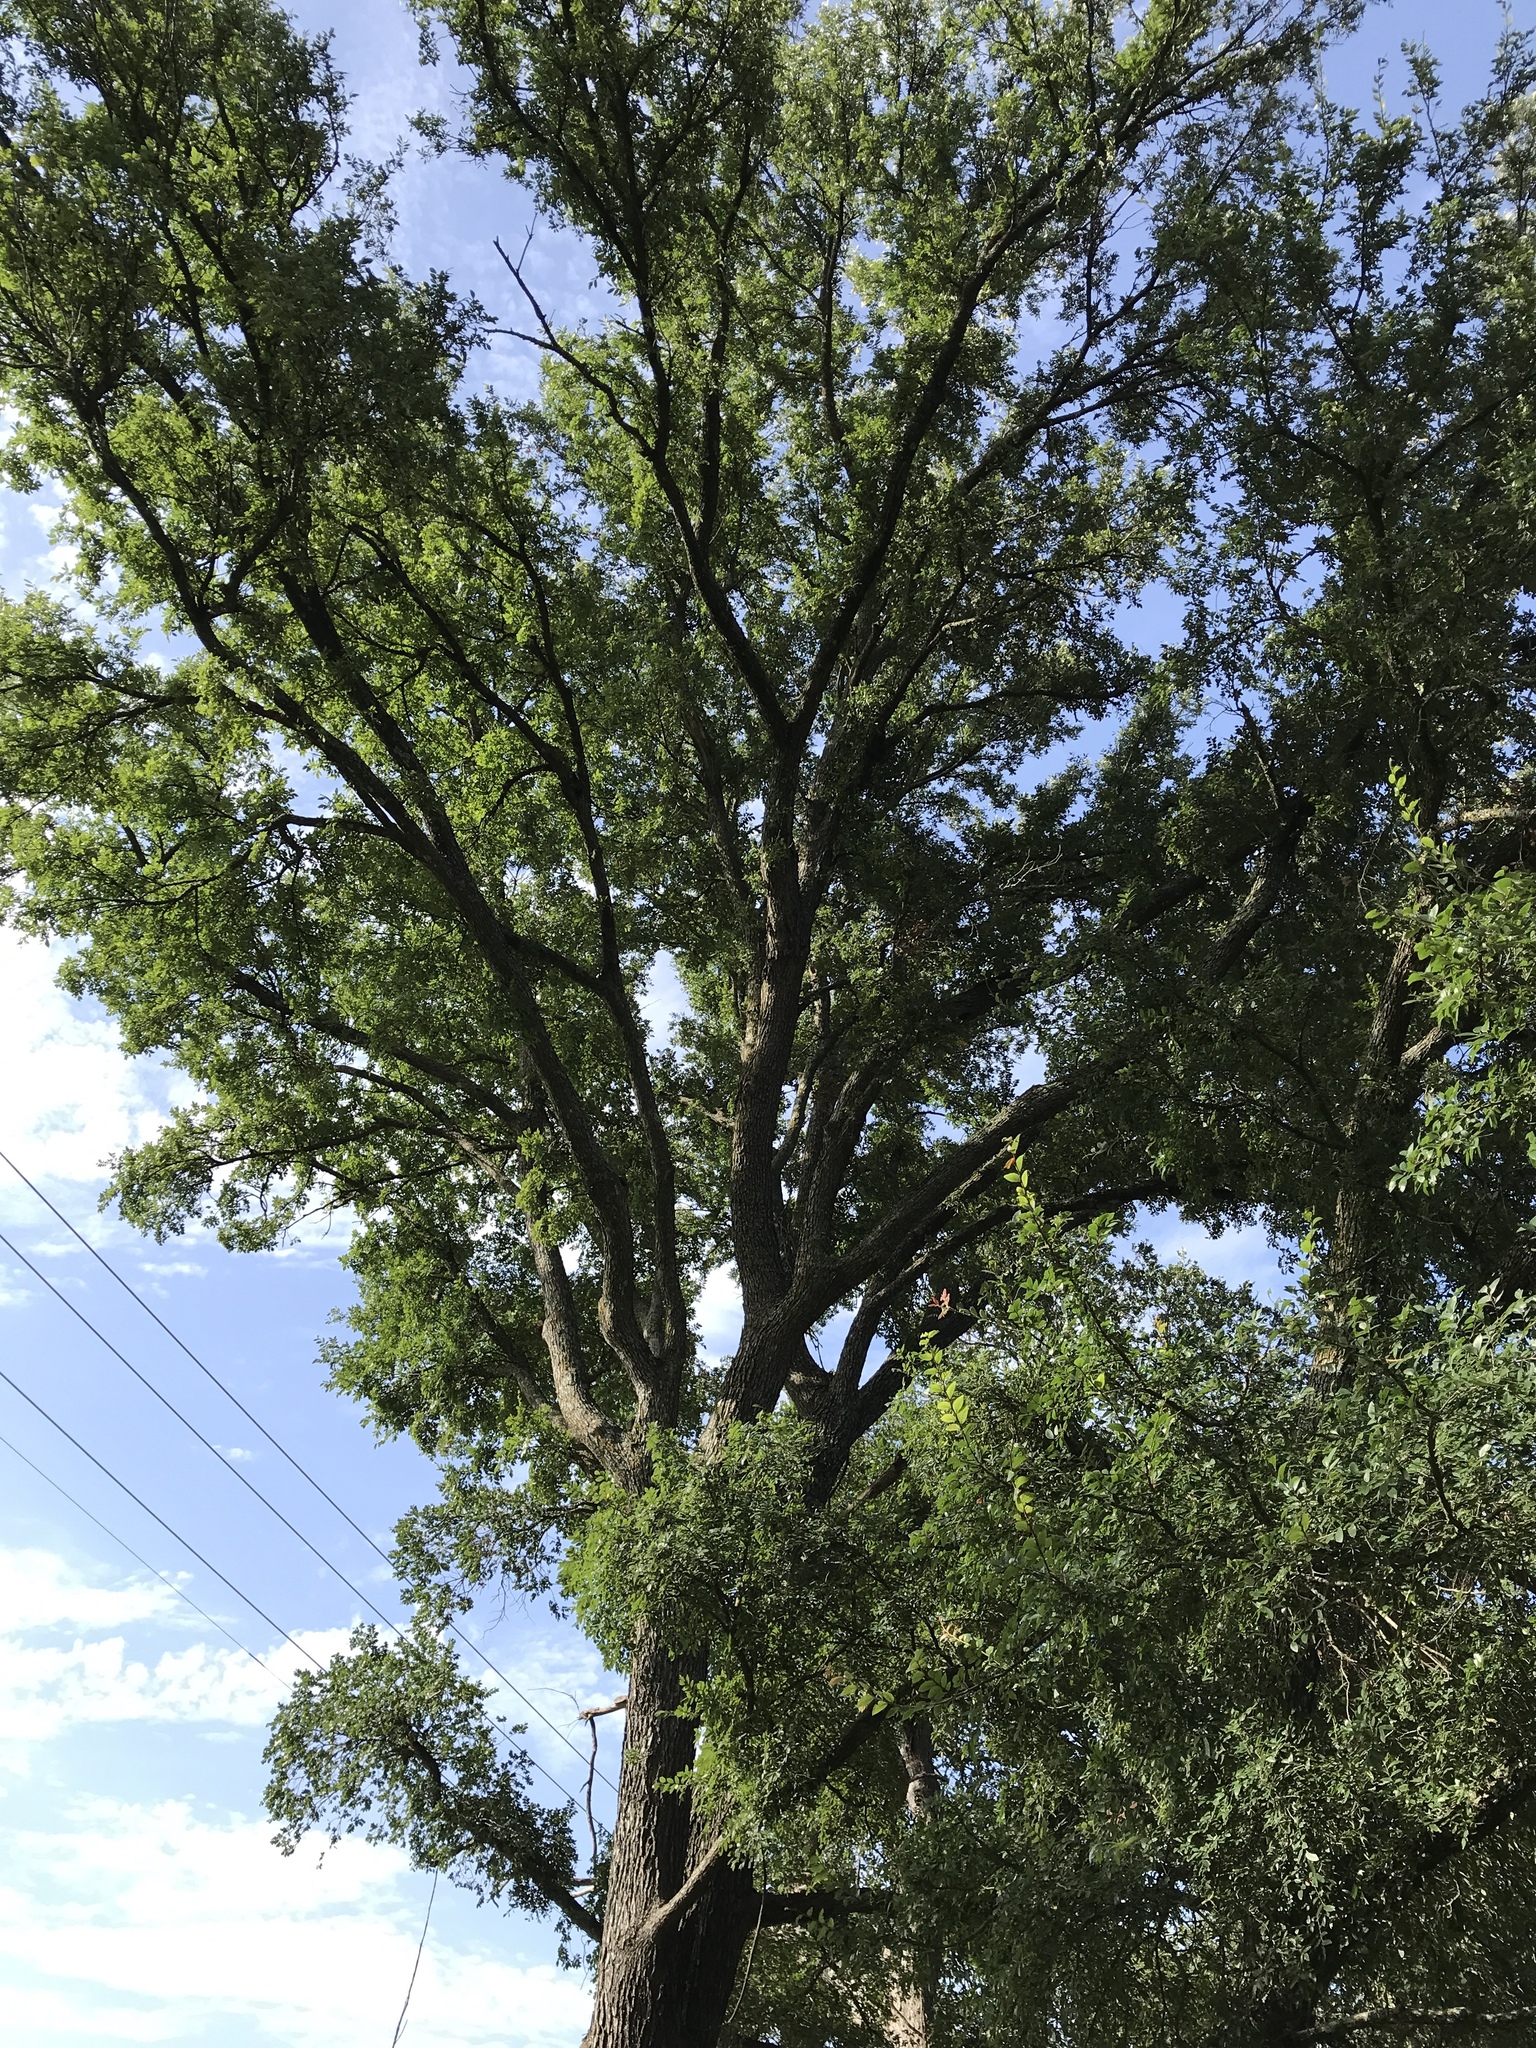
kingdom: Plantae
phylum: Tracheophyta
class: Magnoliopsida
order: Rosales
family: Ulmaceae
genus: Ulmus
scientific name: Ulmus crassifolia
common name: Basket elm
